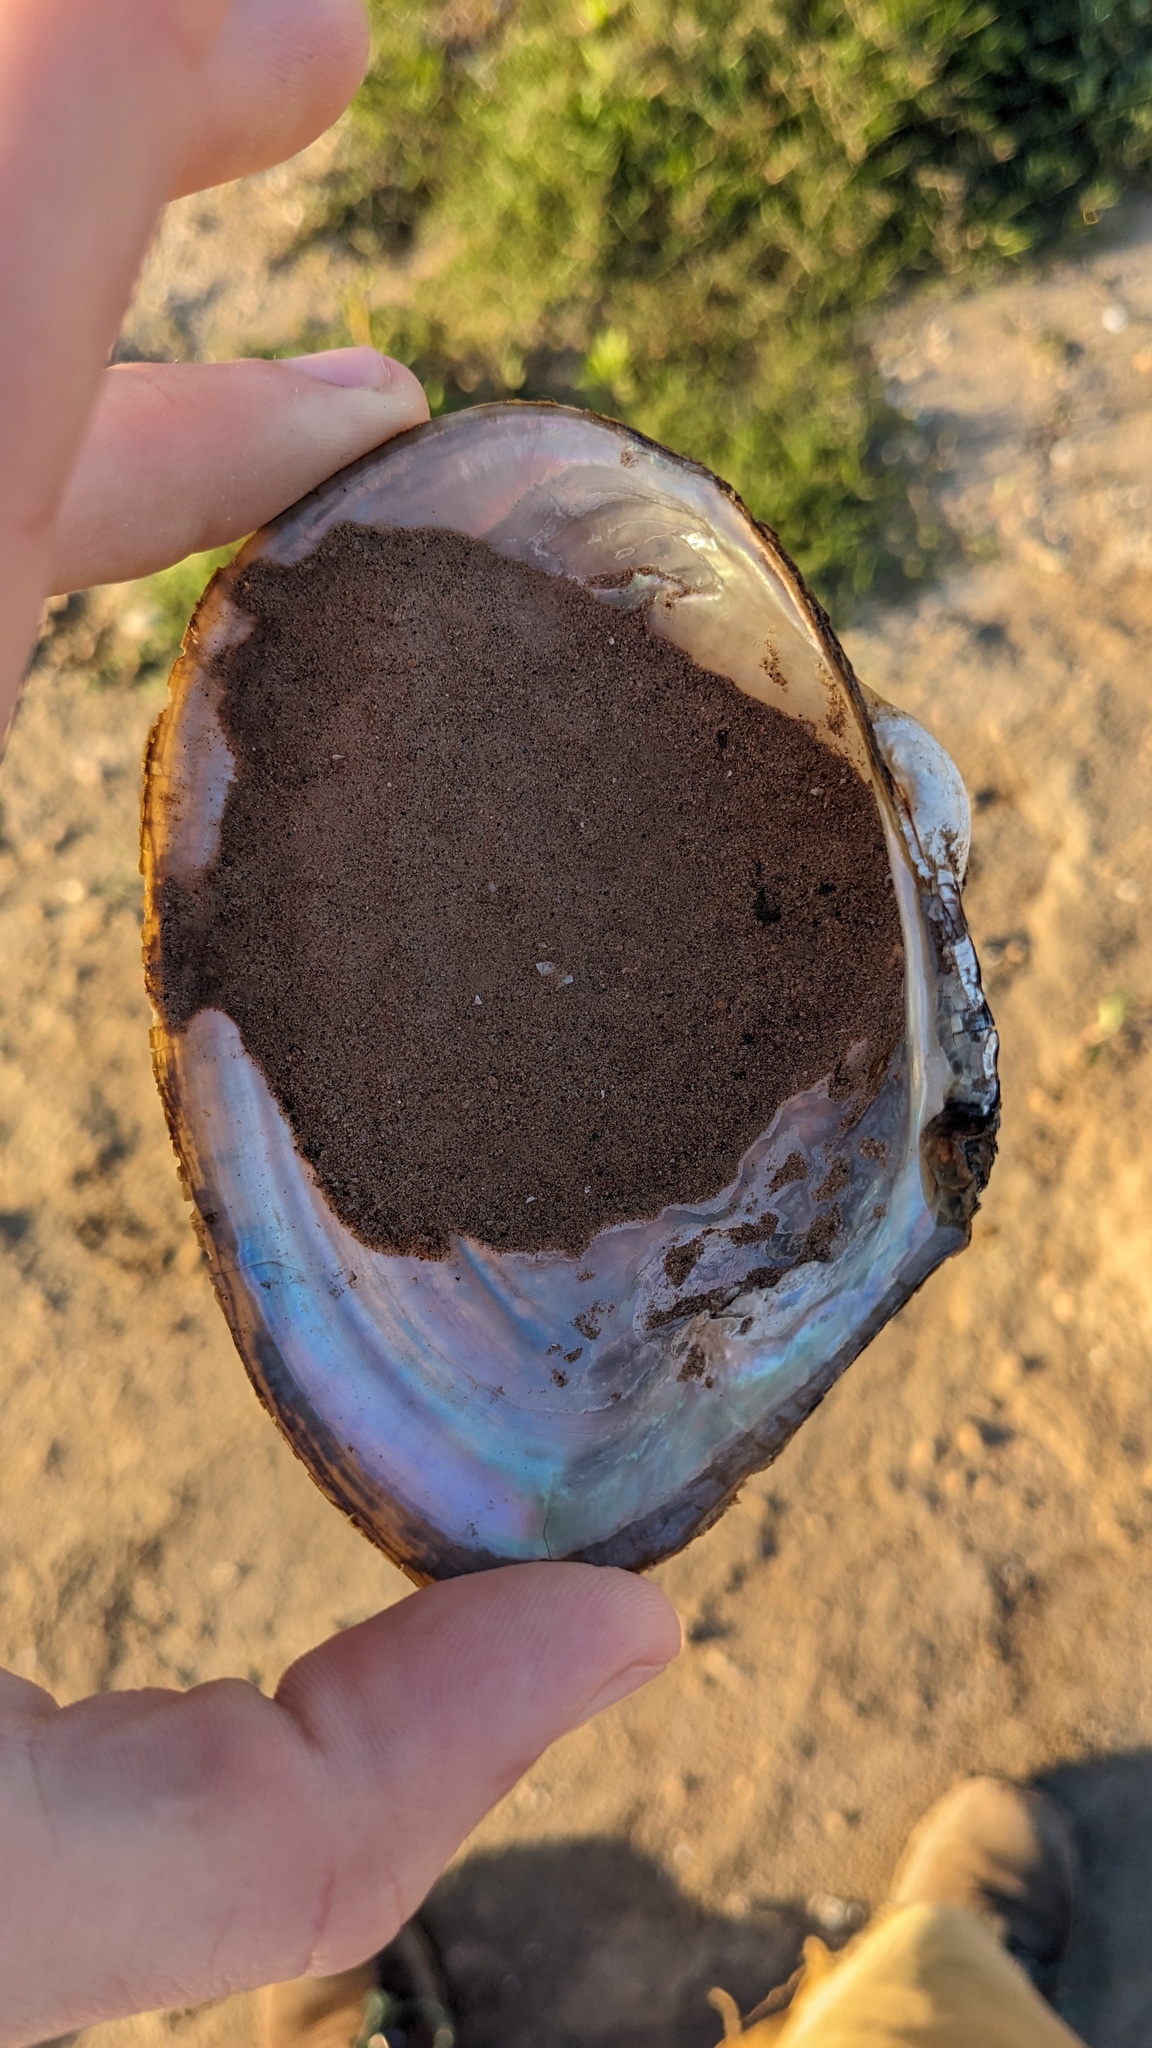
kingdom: Animalia
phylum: Mollusca
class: Bivalvia
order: Unionida
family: Unionidae
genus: Pyganodon
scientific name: Pyganodon grandis
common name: Giant floater
